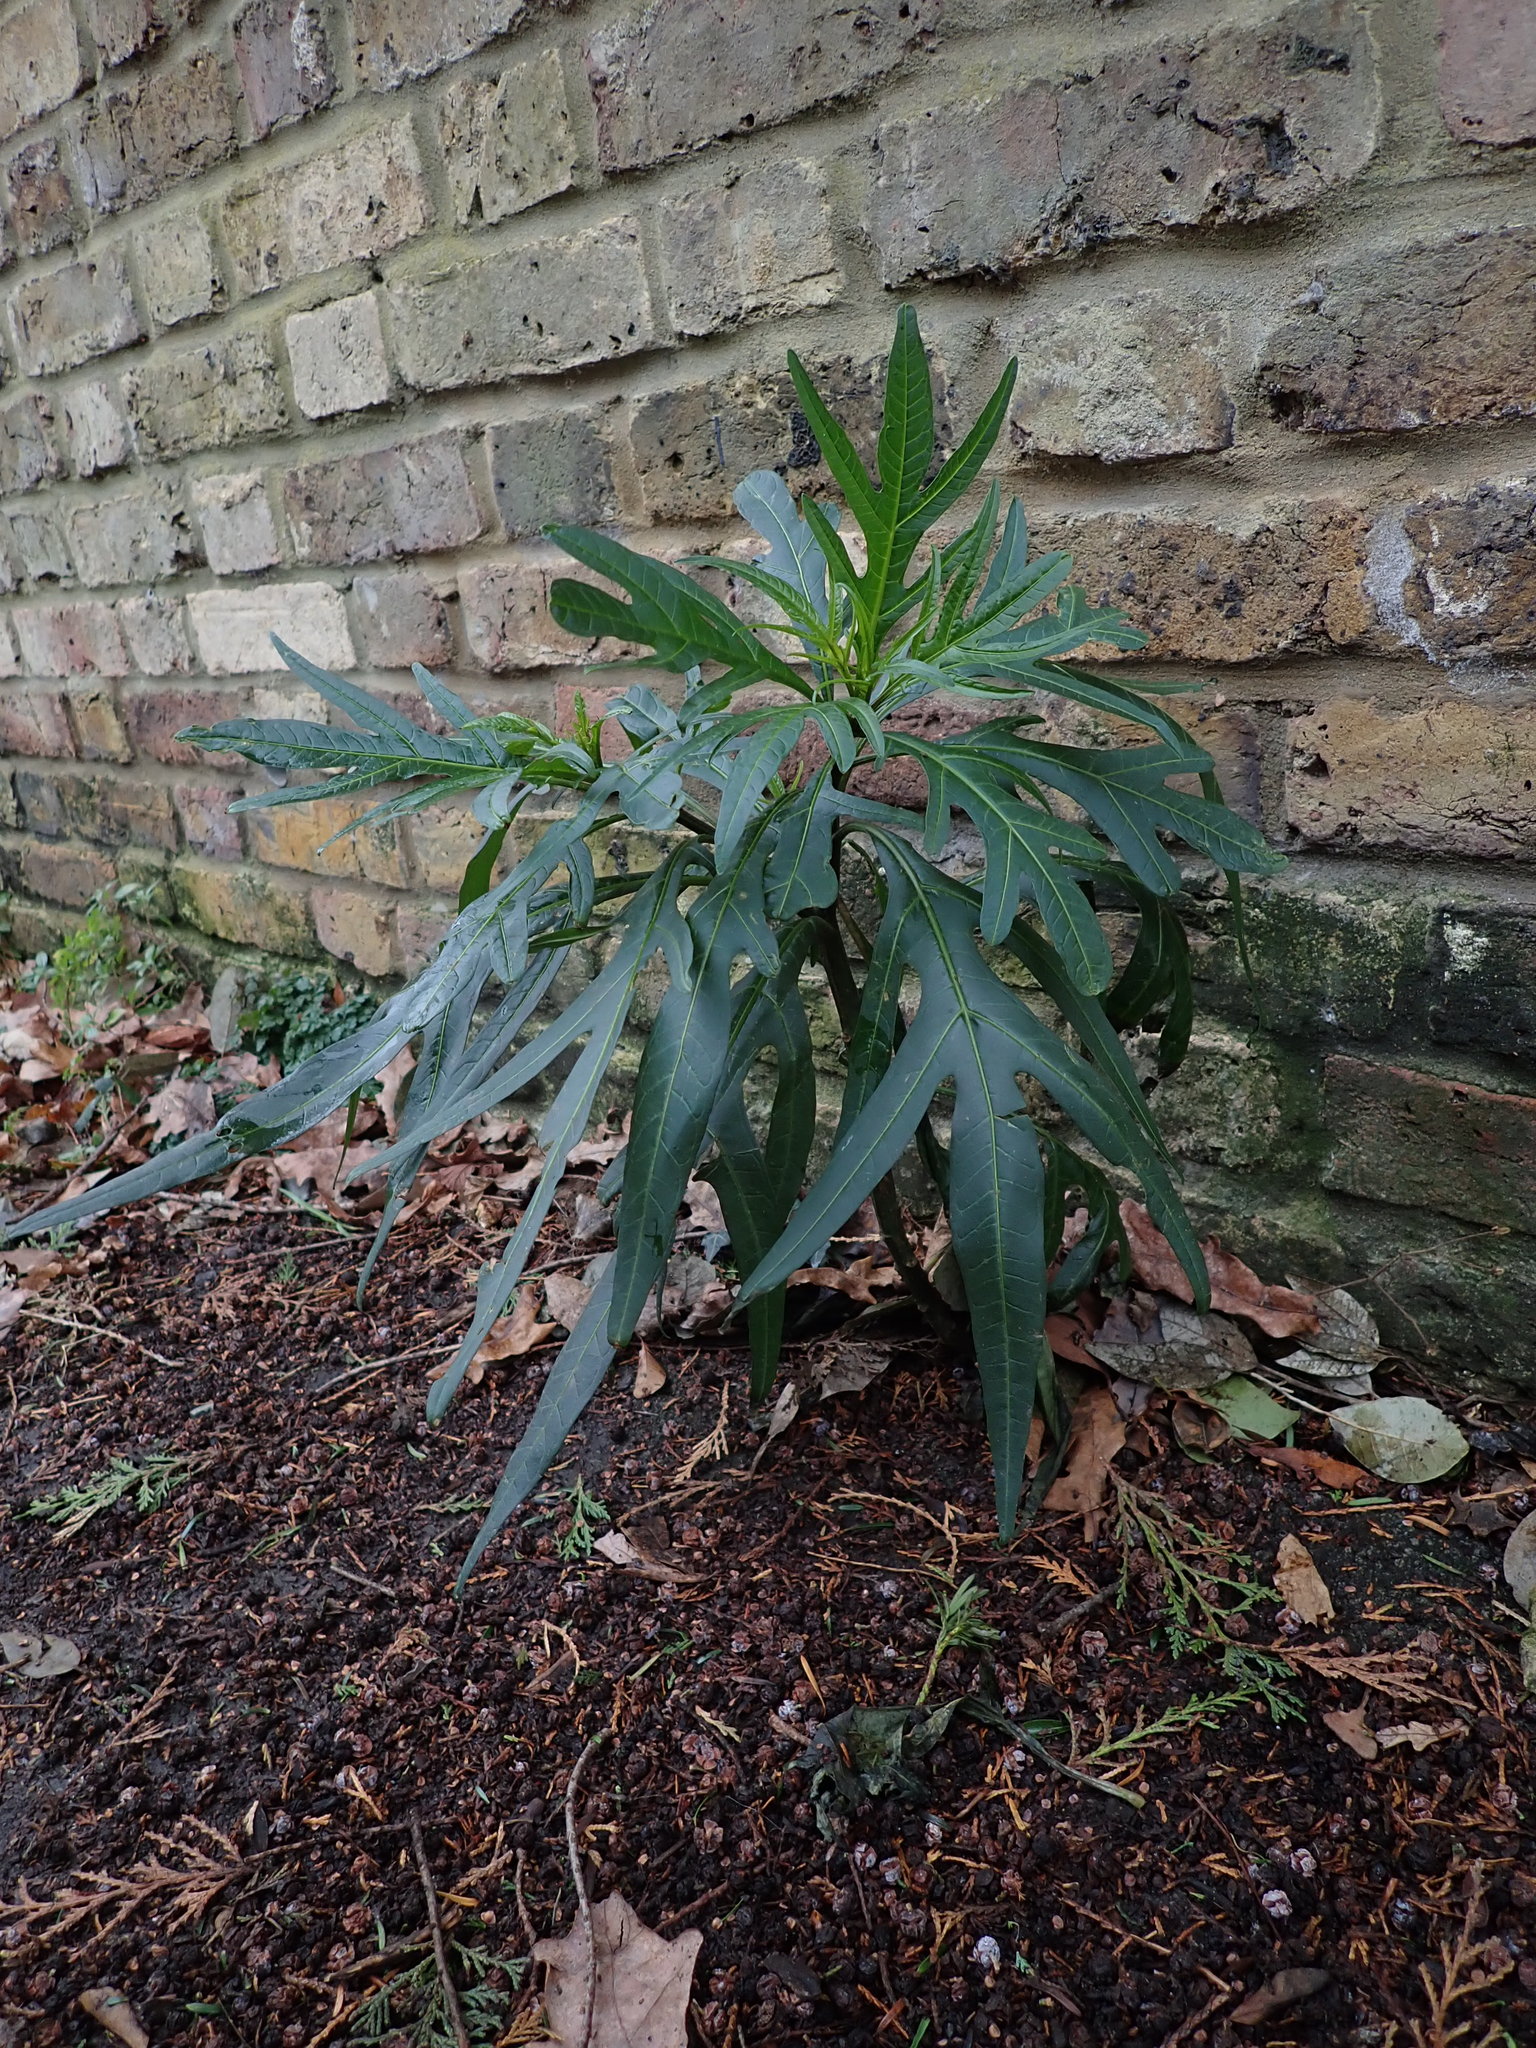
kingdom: Plantae
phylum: Tracheophyta
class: Magnoliopsida
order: Solanales
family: Solanaceae
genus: Solanum
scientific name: Solanum laciniatum
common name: Kangaroo-apple
